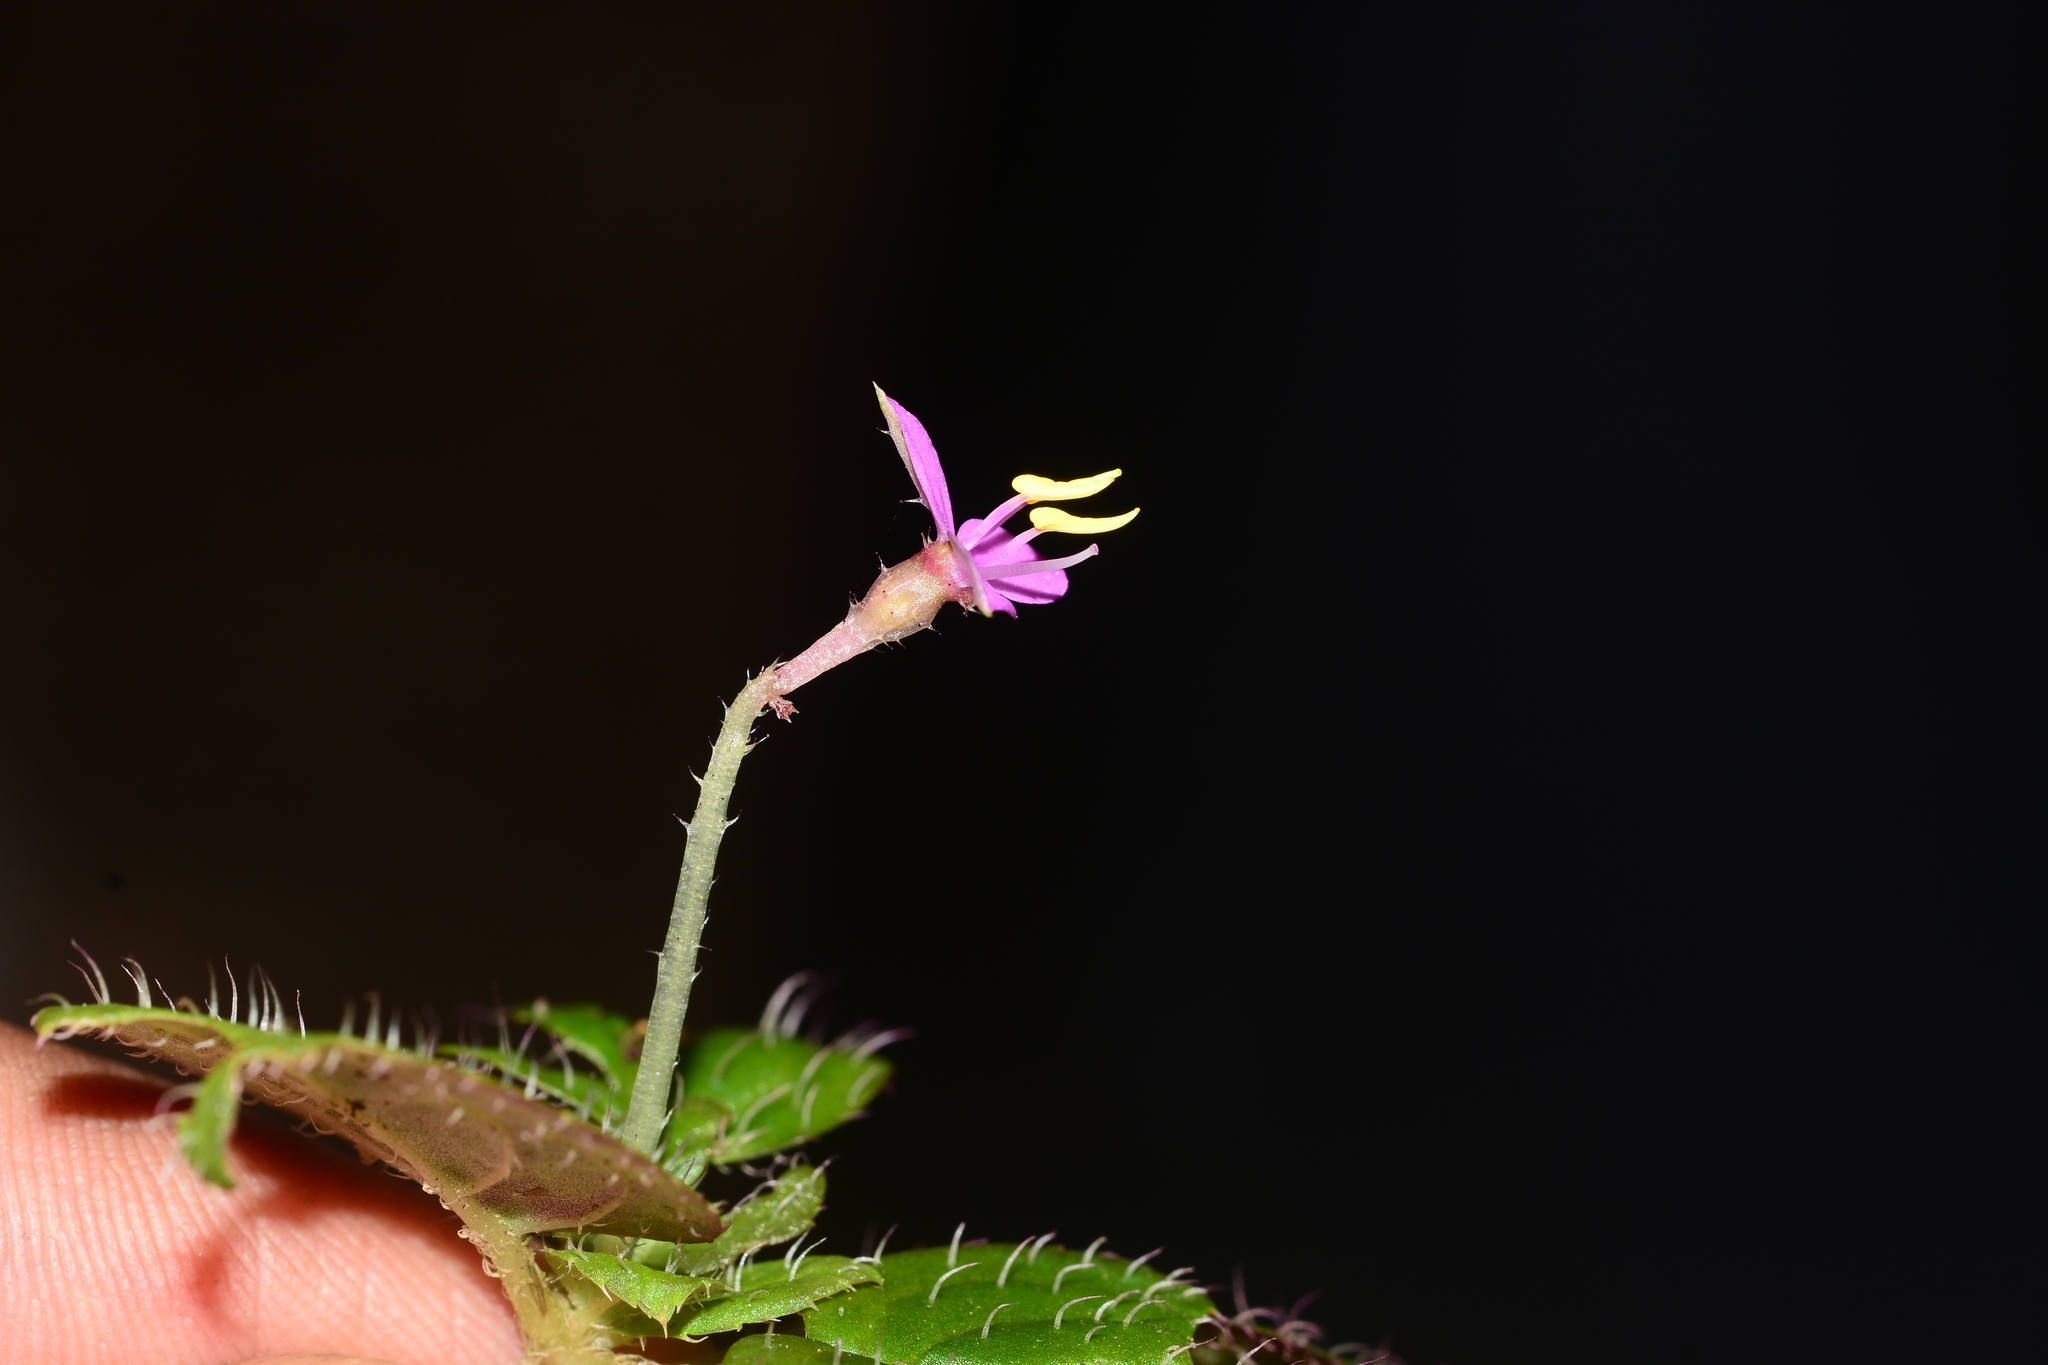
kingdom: Plantae
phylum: Tracheophyta
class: Magnoliopsida
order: Myrtales
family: Melastomataceae
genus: Sonerila
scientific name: Sonerila rheedei
